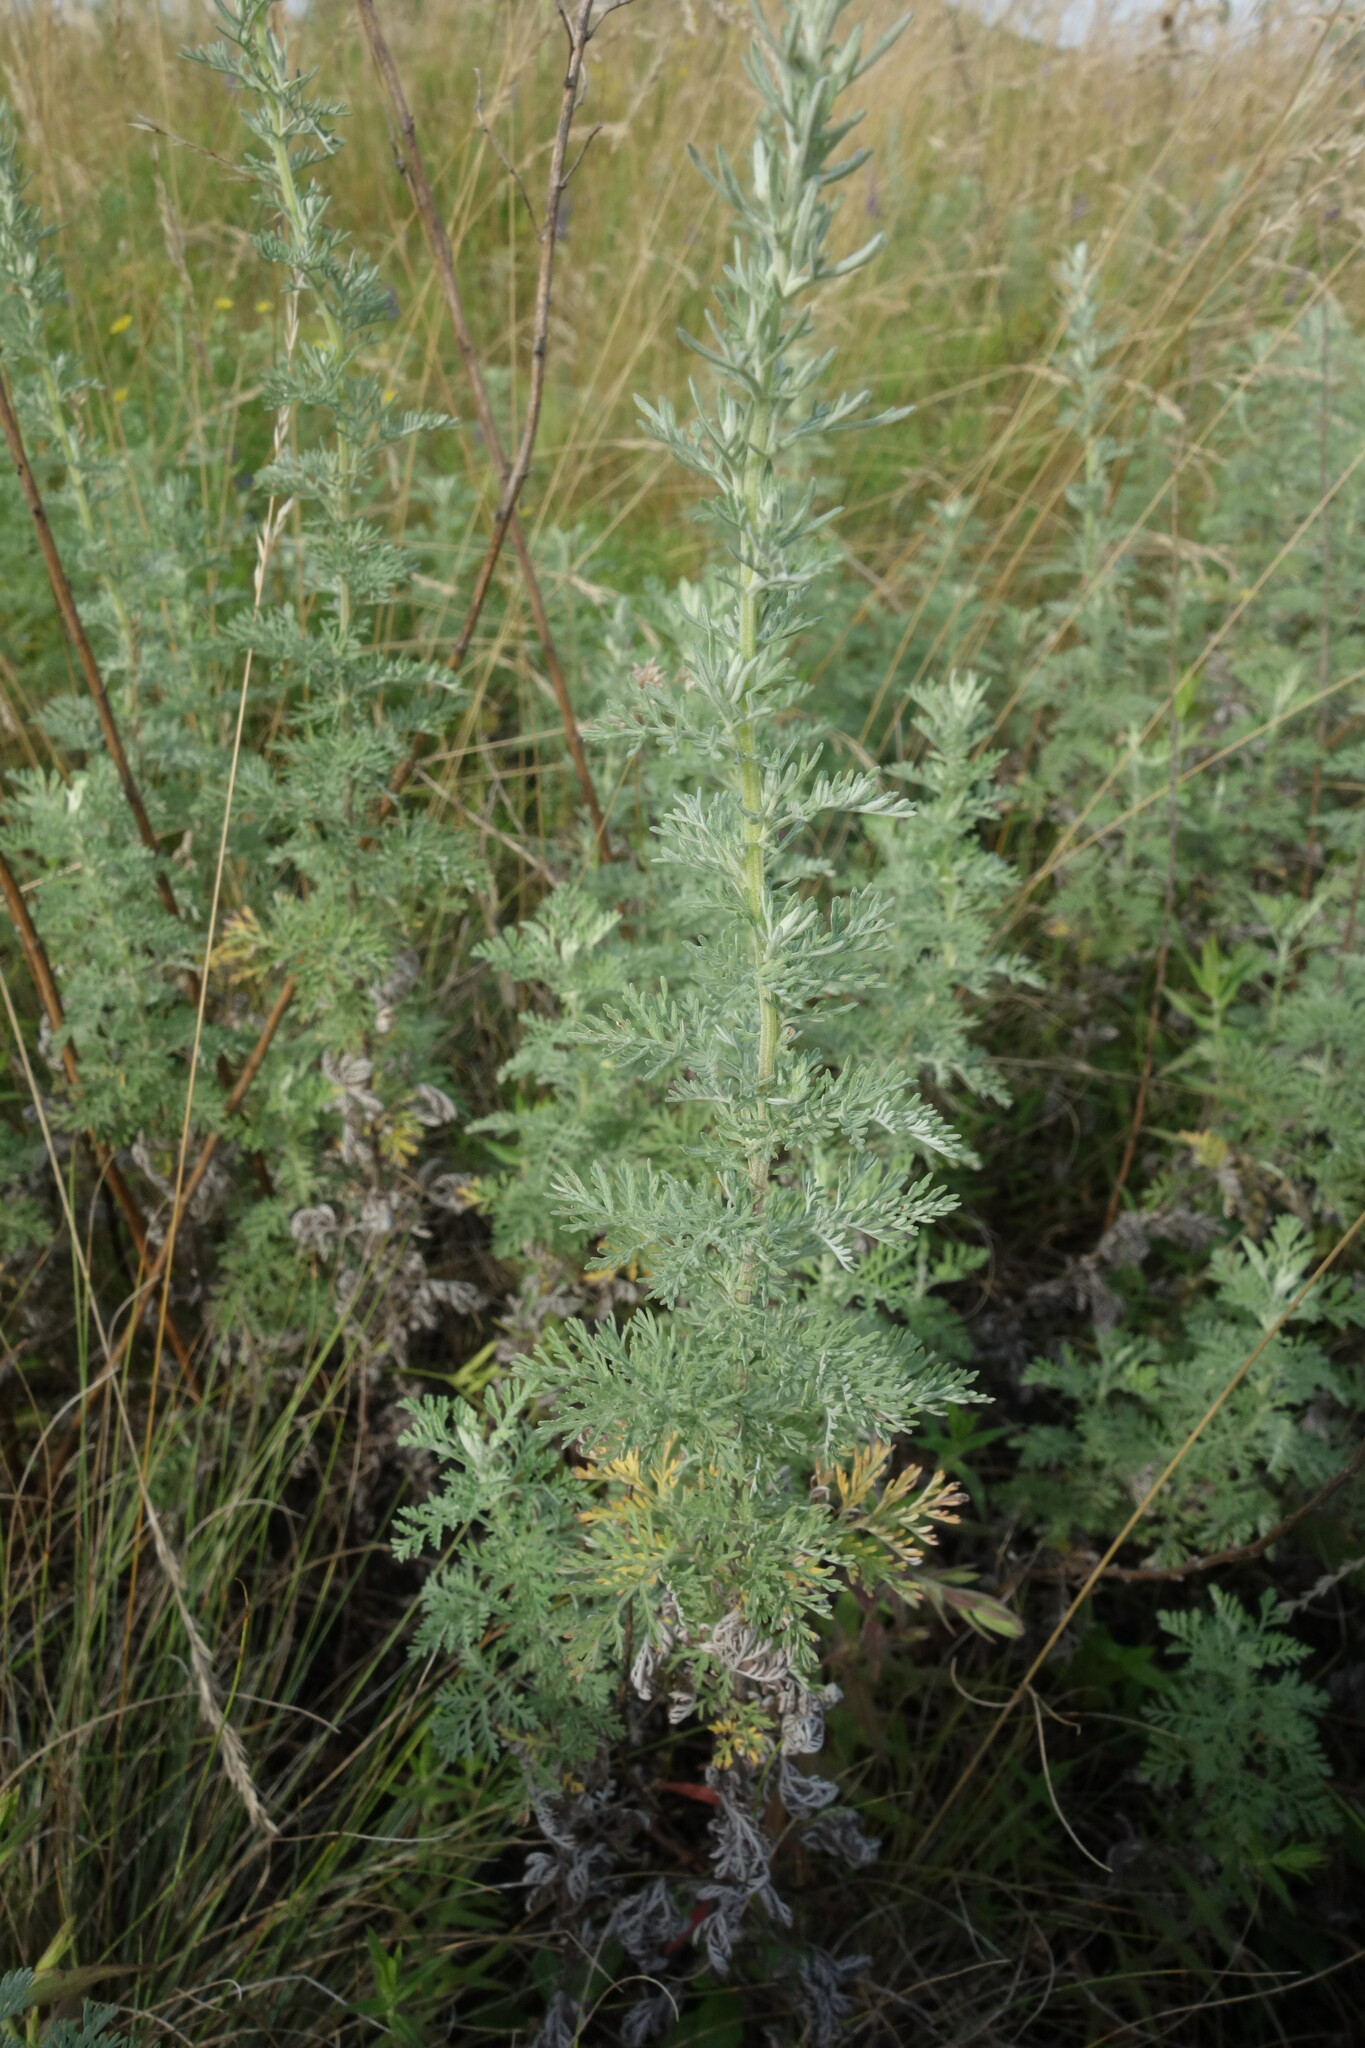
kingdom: Plantae
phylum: Tracheophyta
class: Magnoliopsida
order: Asterales
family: Asteraceae
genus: Artemisia
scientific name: Artemisia pontica
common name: Roman wormwood
